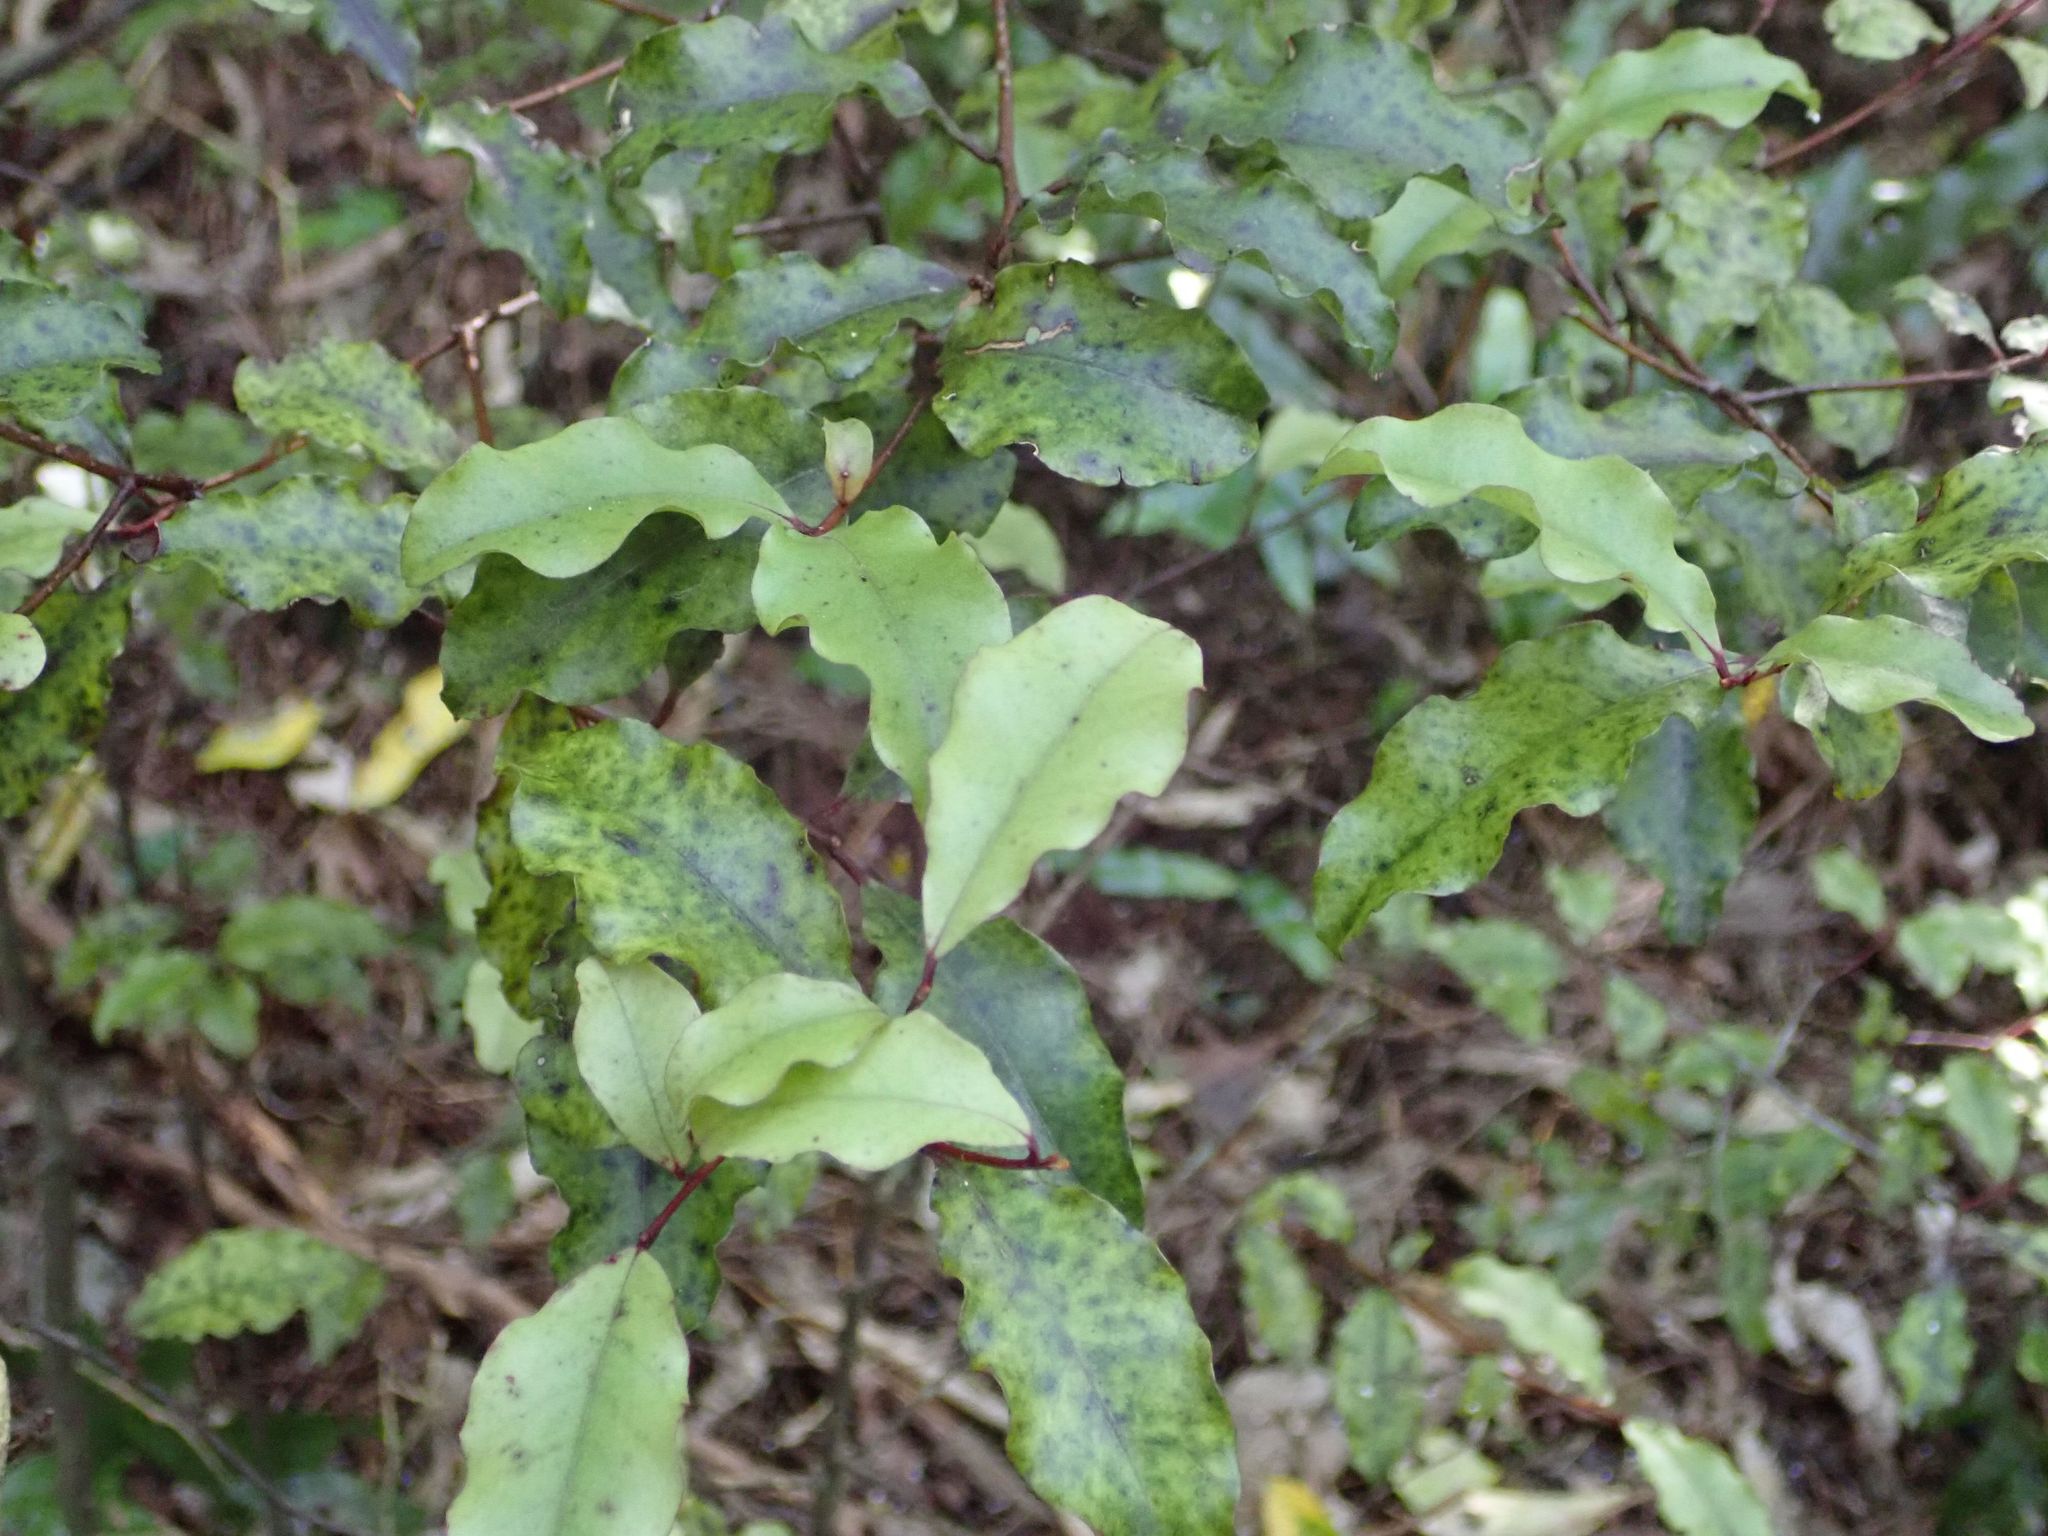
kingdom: Plantae
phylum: Tracheophyta
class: Magnoliopsida
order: Ericales
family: Primulaceae
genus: Myrsine
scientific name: Myrsine australis
